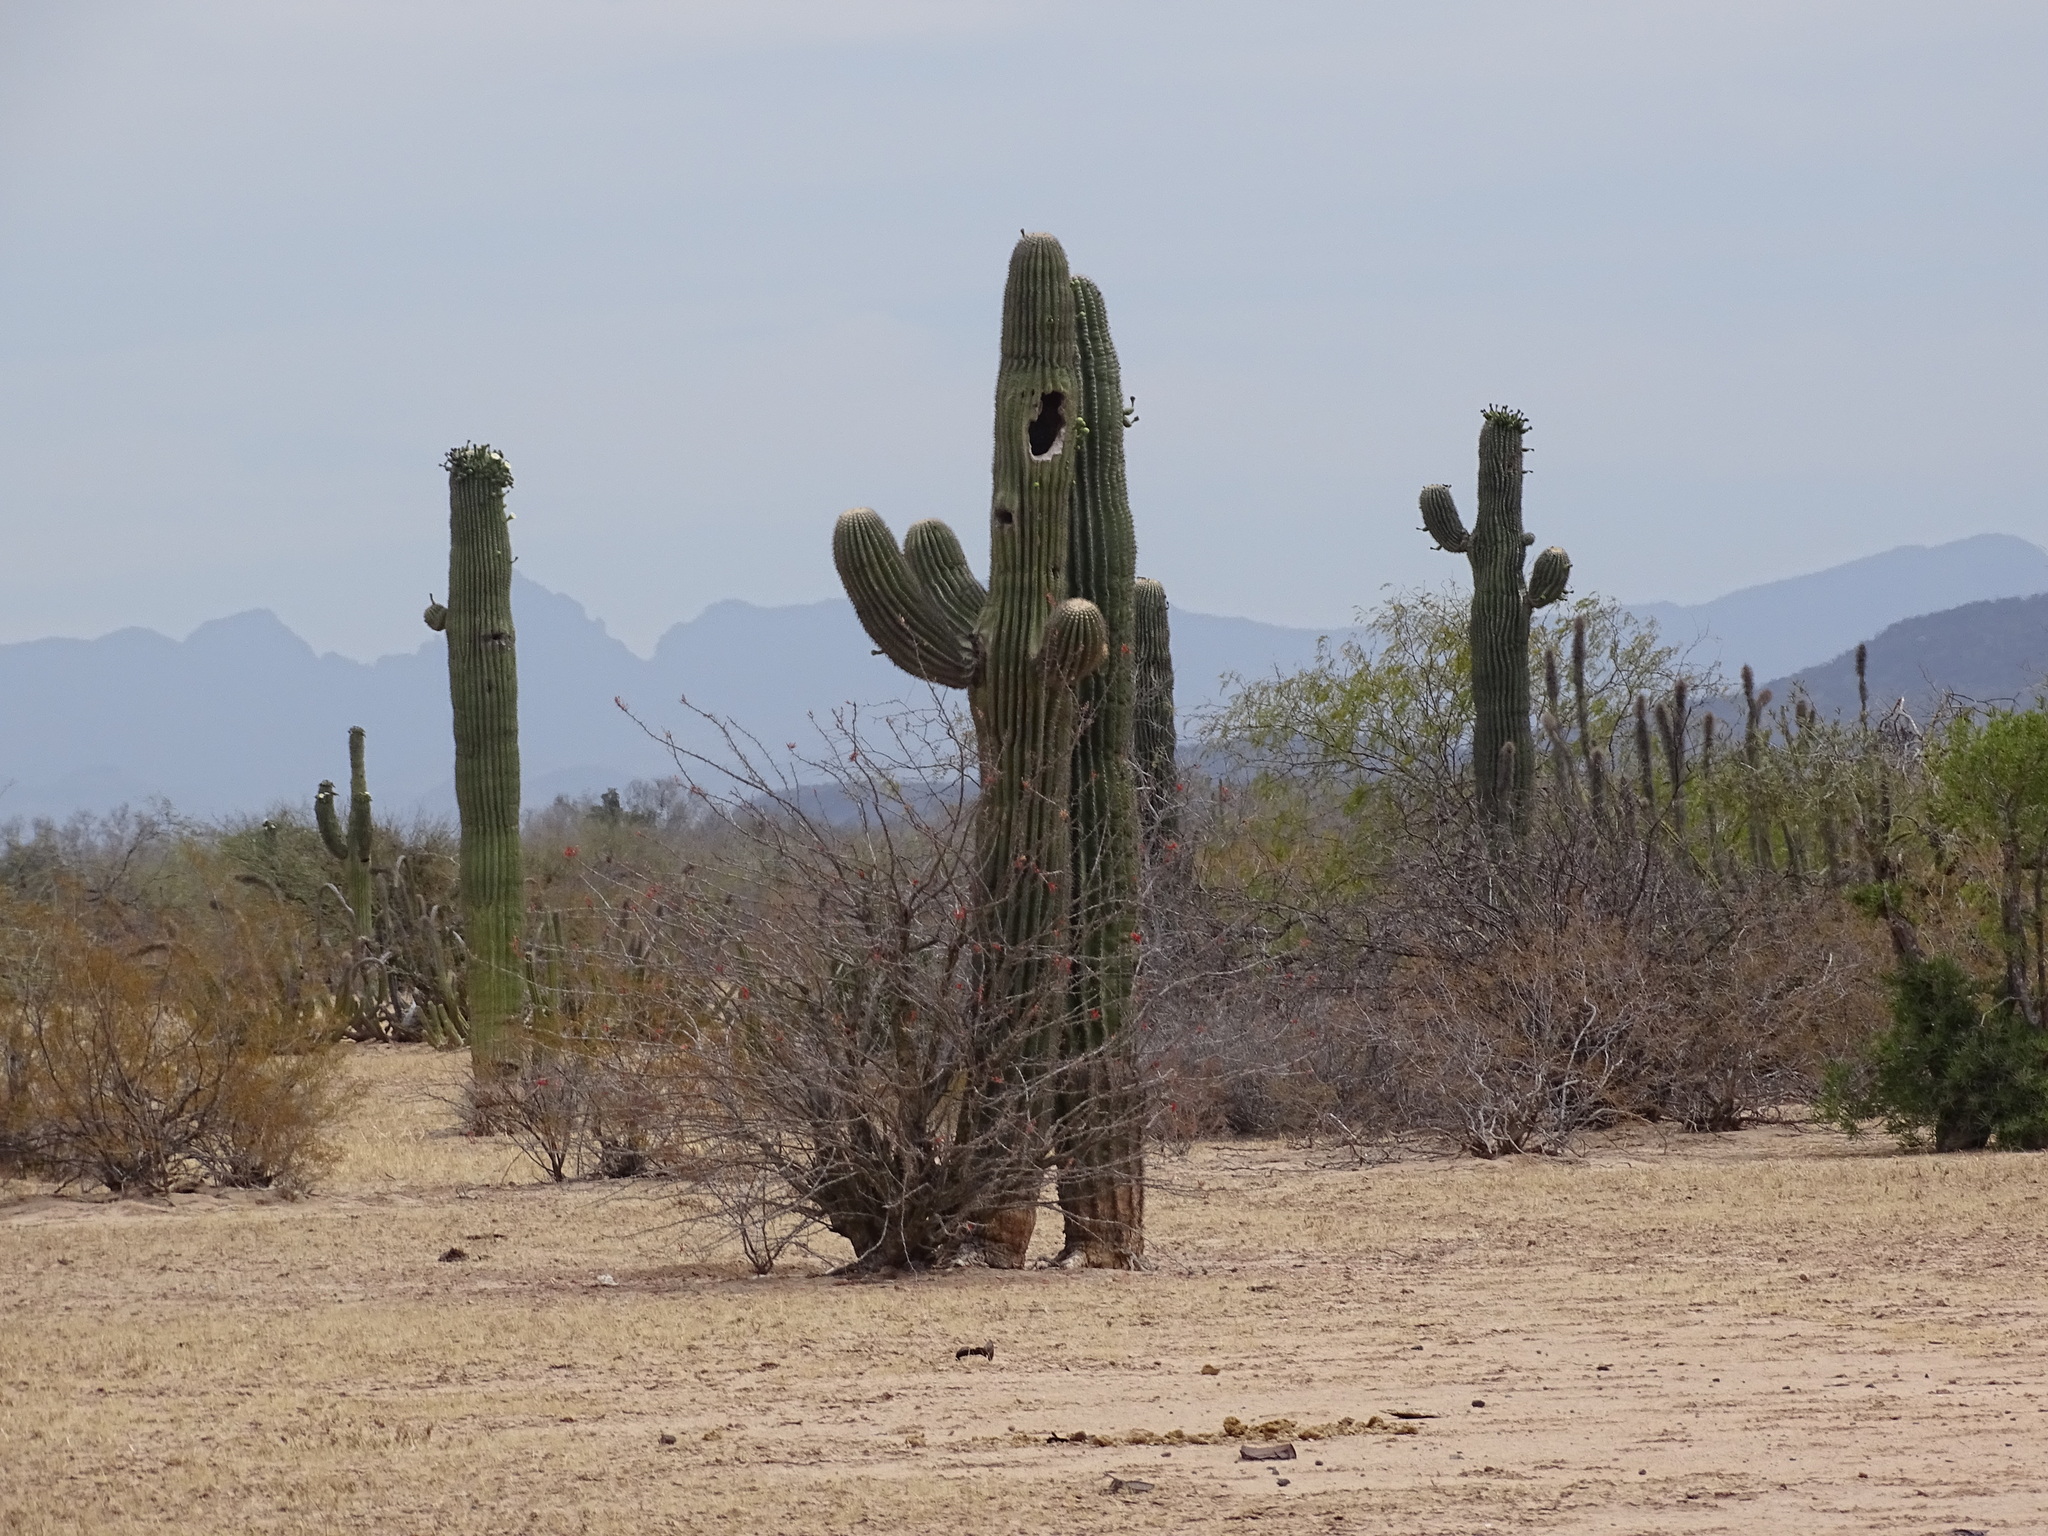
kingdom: Plantae
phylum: Tracheophyta
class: Magnoliopsida
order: Caryophyllales
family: Cactaceae
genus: Carnegiea
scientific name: Carnegiea gigantea
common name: Saguaro
